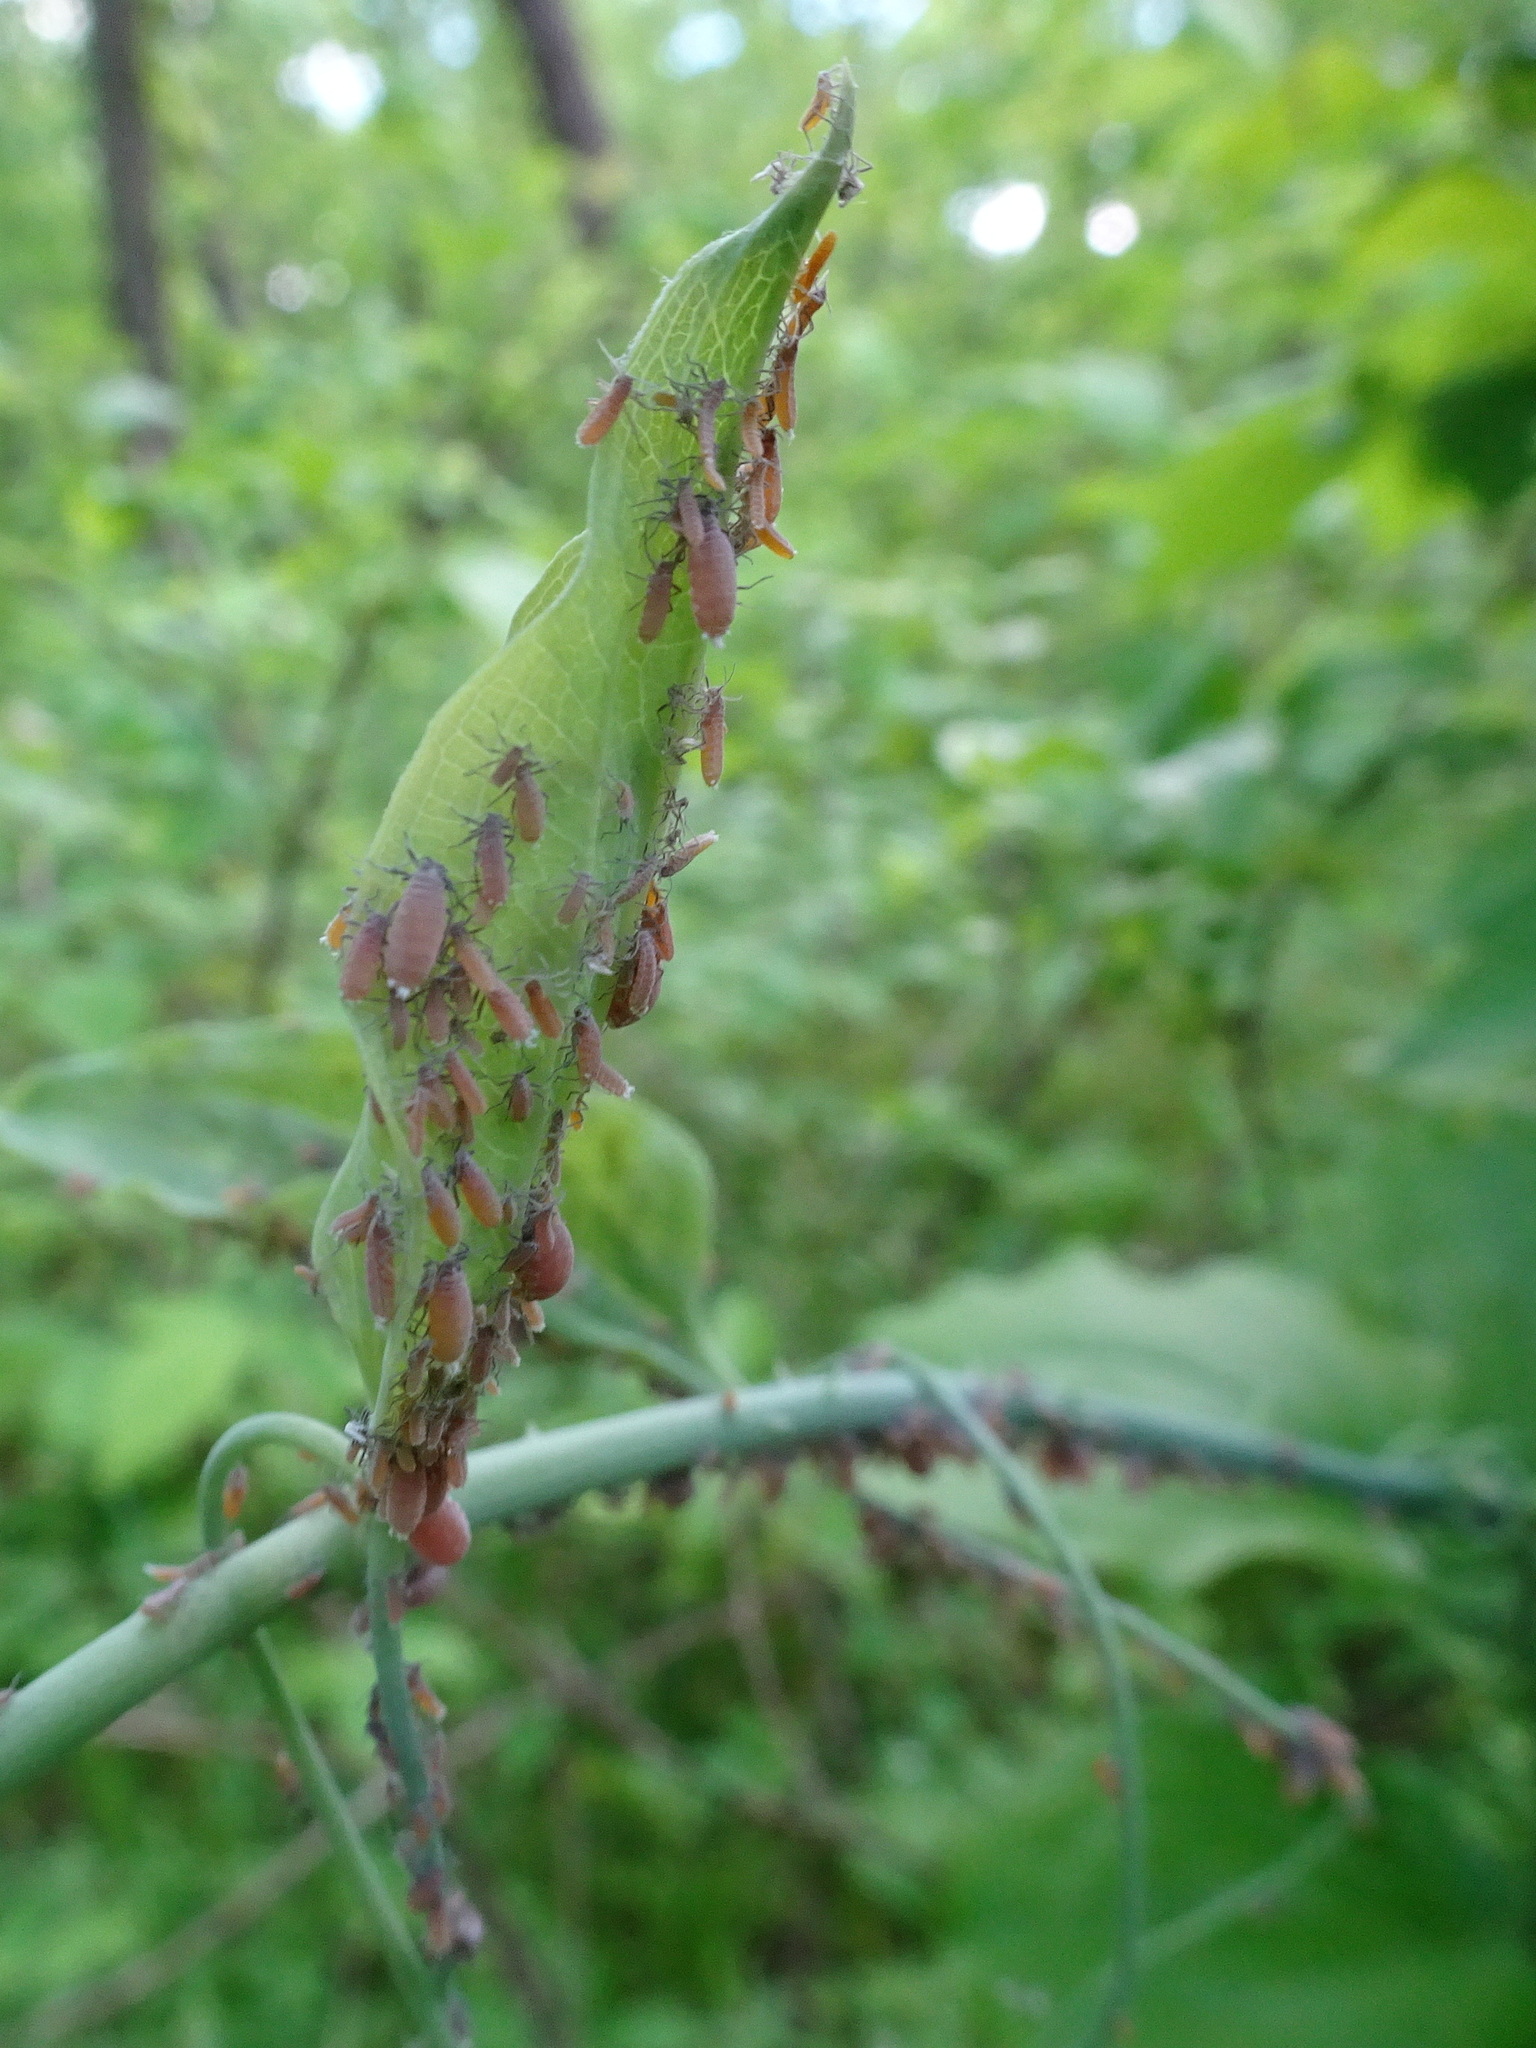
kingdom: Animalia
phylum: Arthropoda
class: Insecta
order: Hemiptera
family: Aphididae
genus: Neoprociphilus
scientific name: Neoprociphilus aceris
